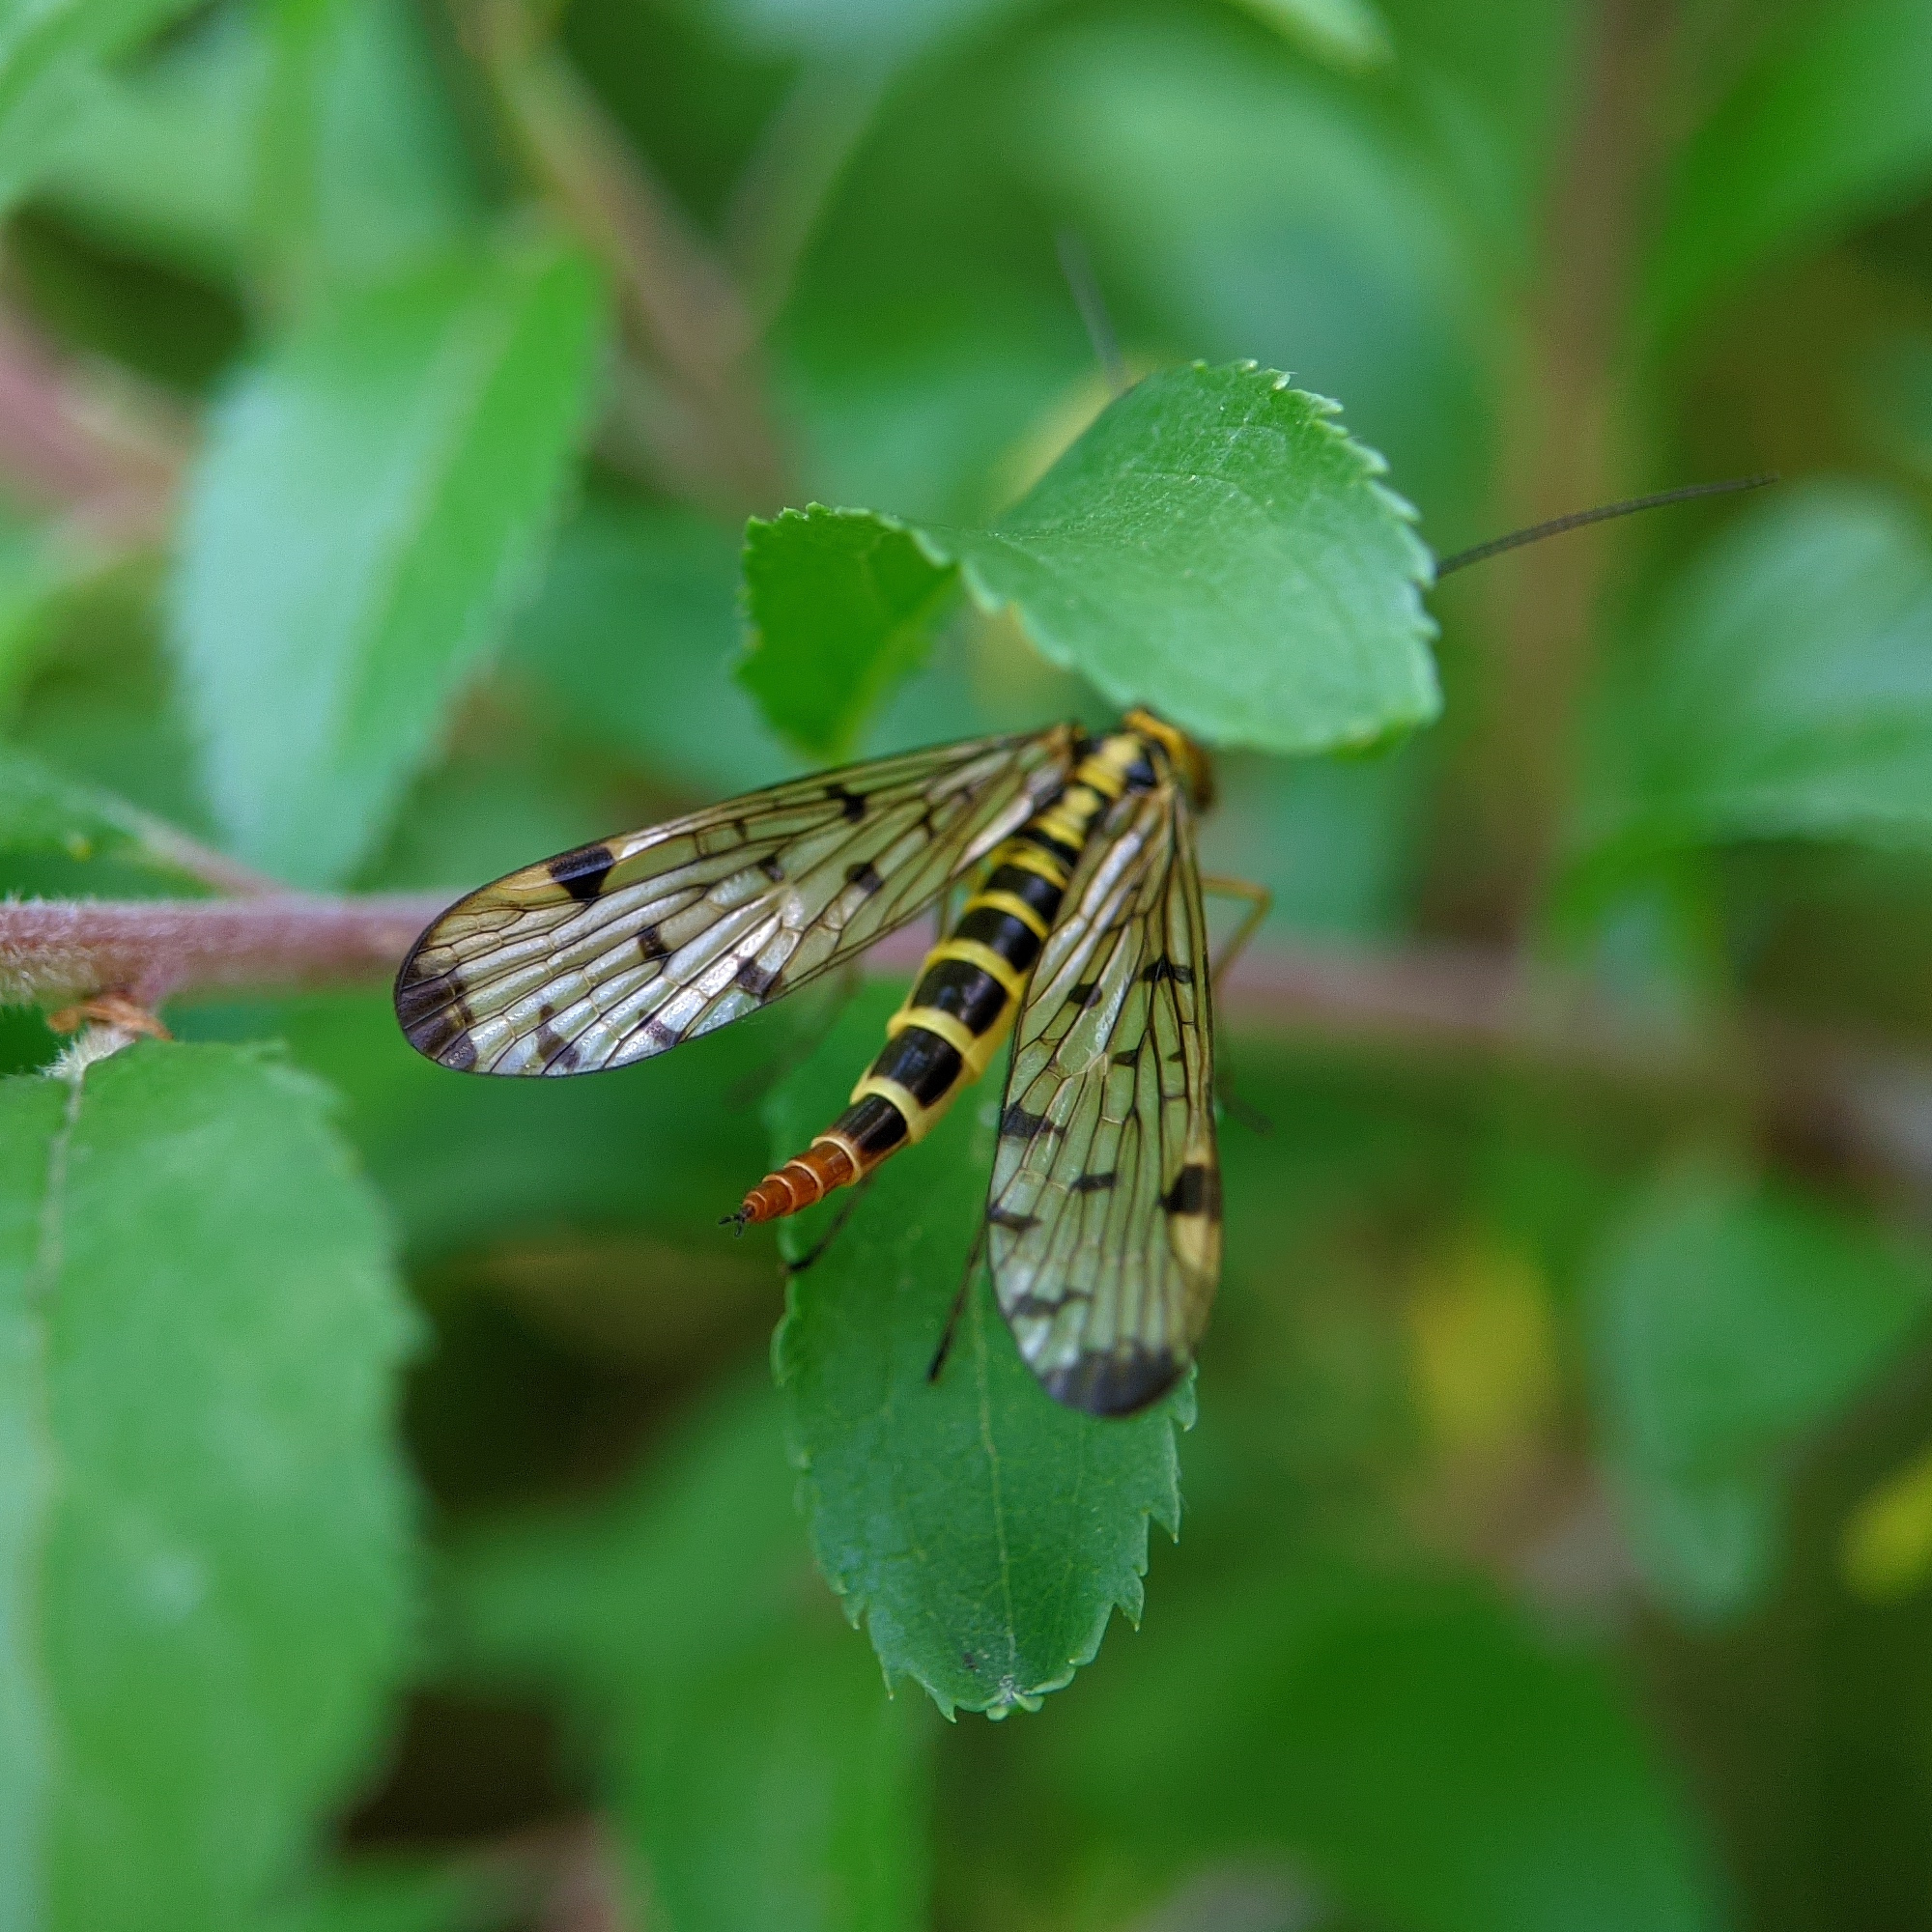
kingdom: Animalia
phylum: Arthropoda
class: Insecta
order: Mecoptera
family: Panorpidae
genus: Panorpa
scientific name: Panorpa germanica
